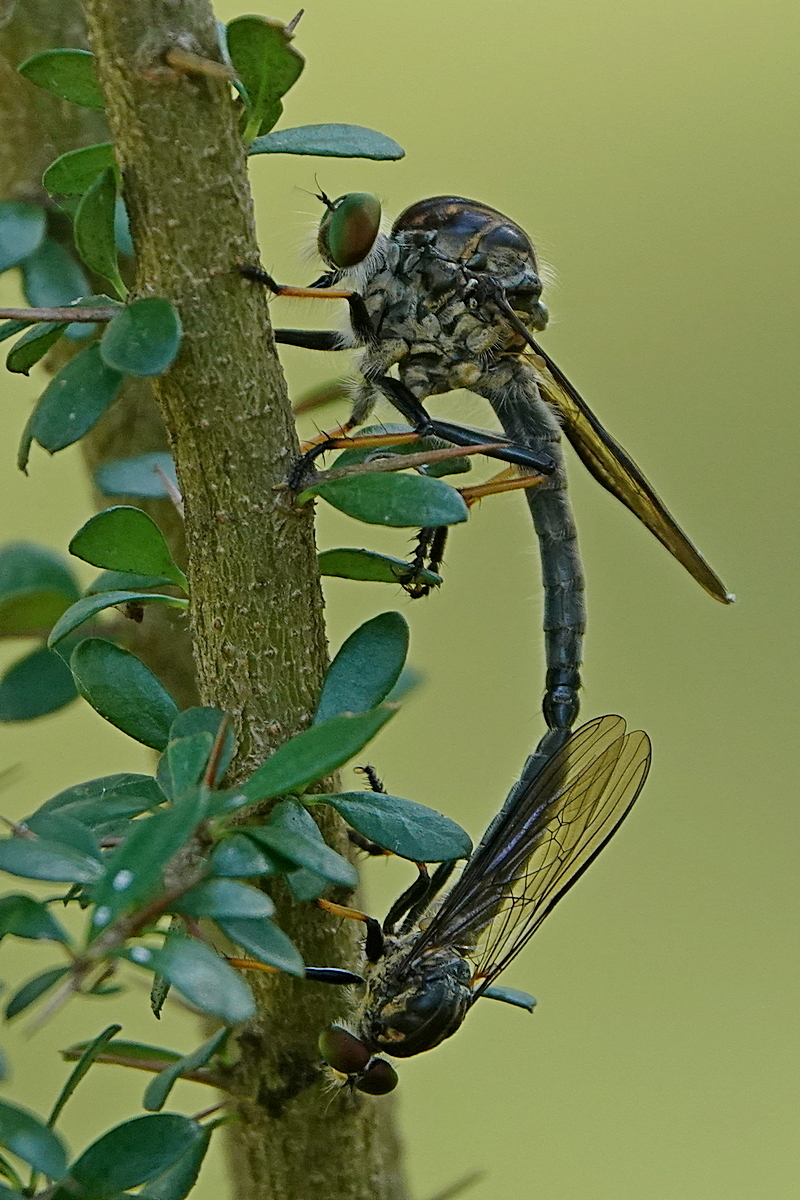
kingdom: Animalia
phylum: Arthropoda
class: Insecta
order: Diptera
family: Asilidae
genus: Ommatius
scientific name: Ommatius coeraebus
